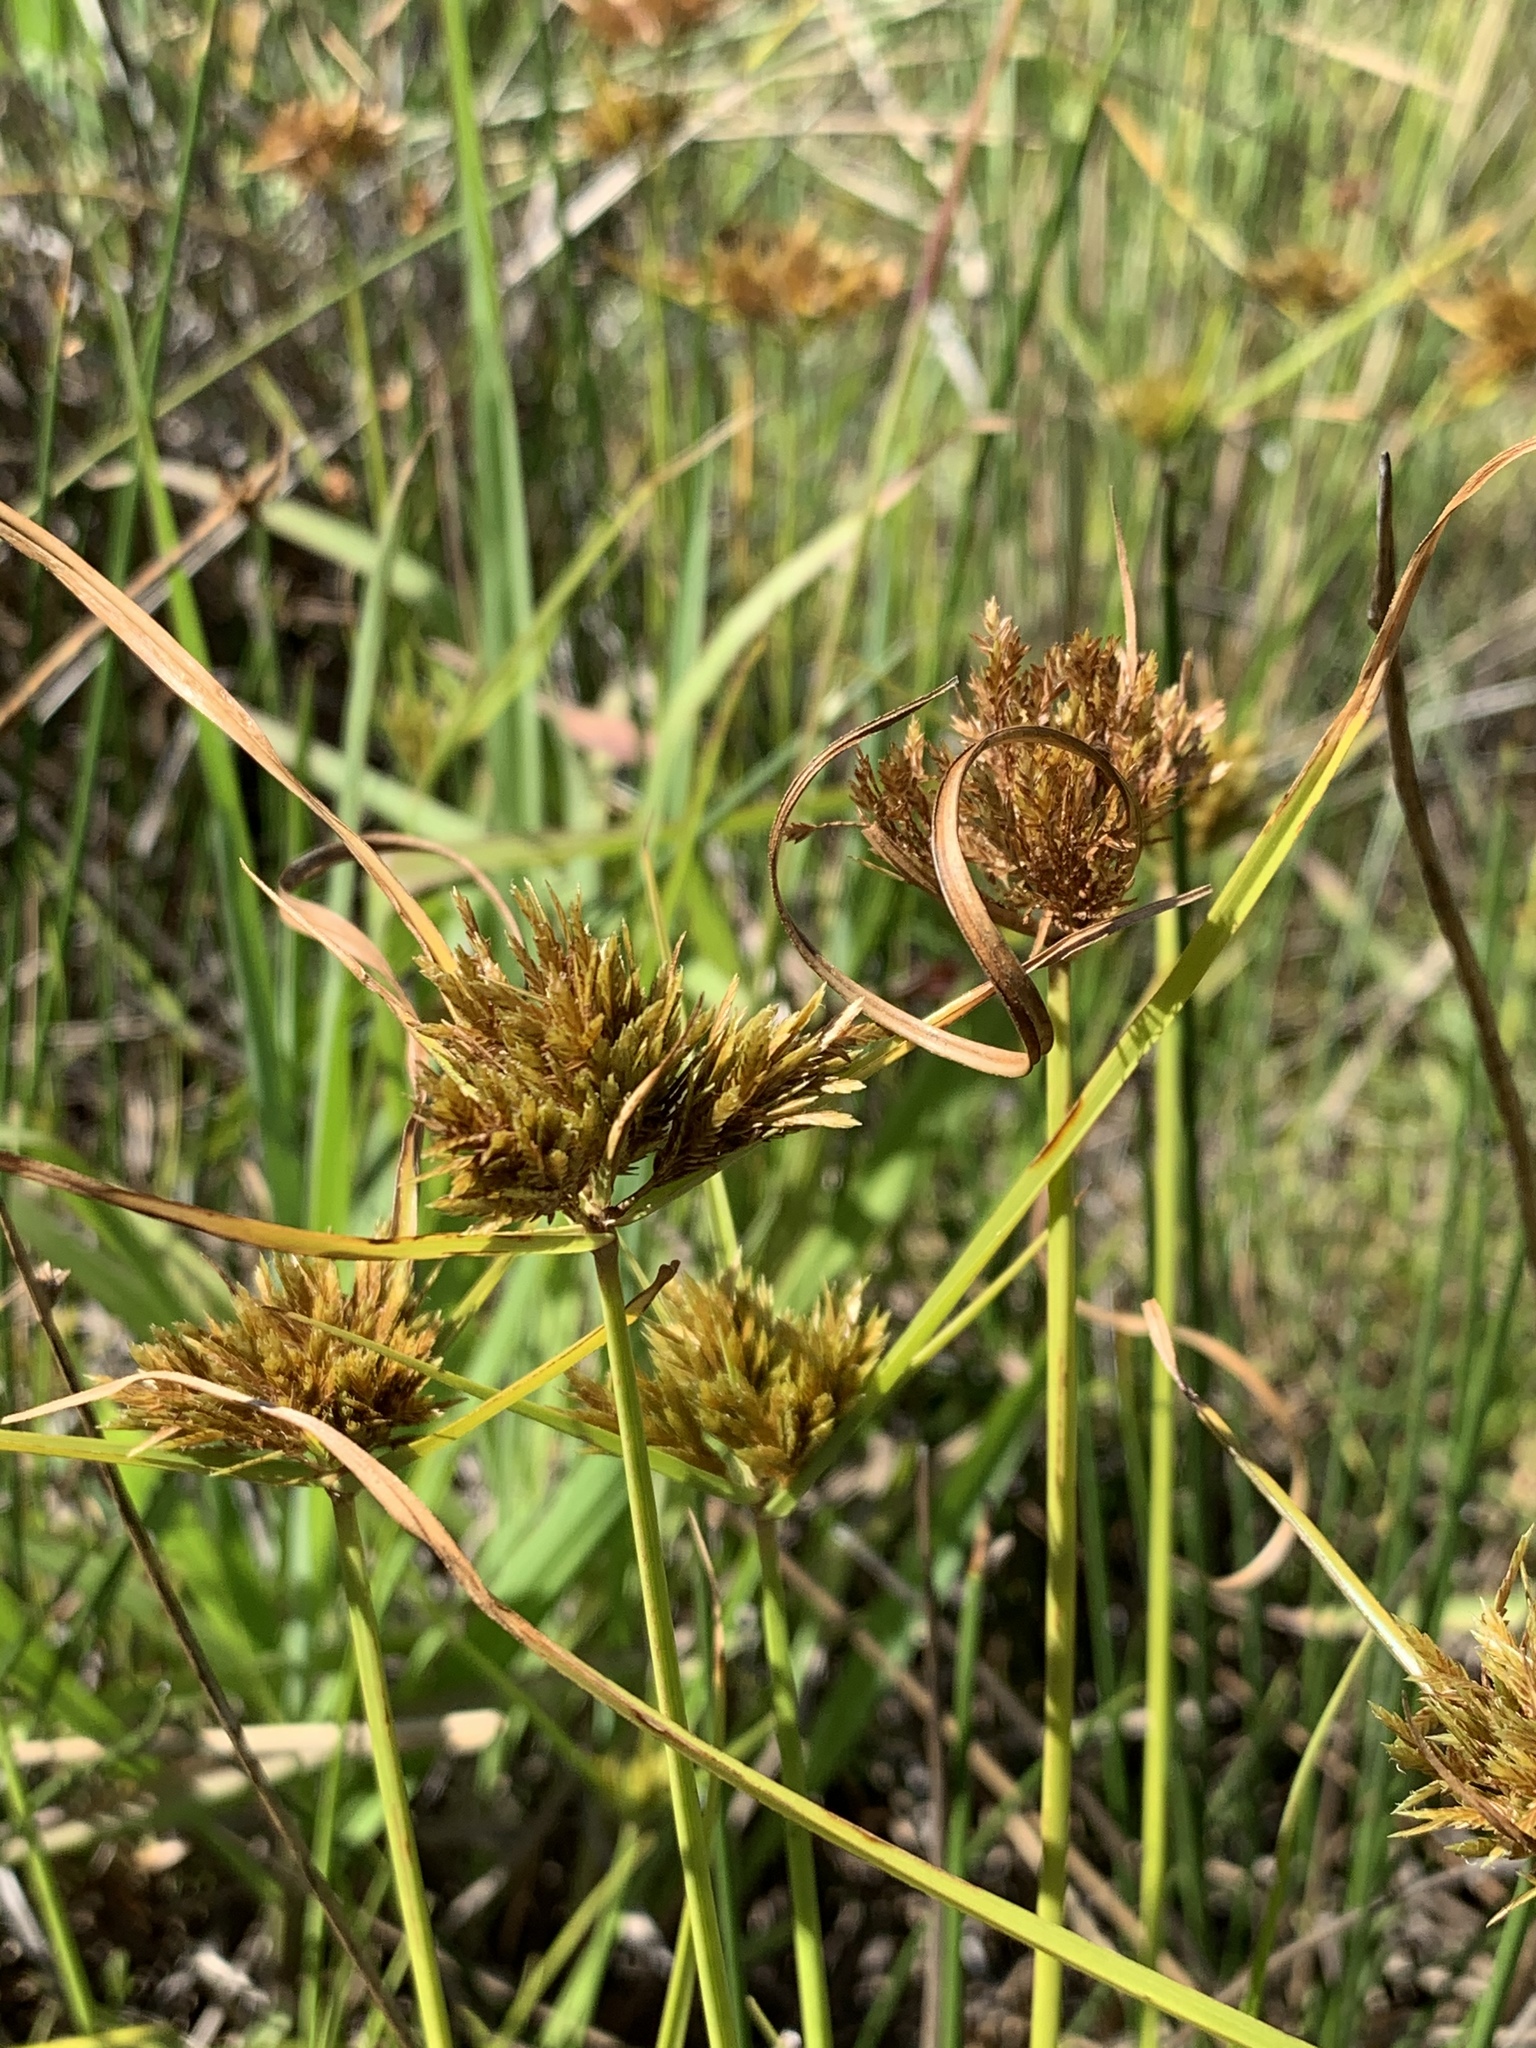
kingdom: Plantae
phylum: Tracheophyta
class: Liliopsida
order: Poales
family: Cyperaceae
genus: Cyperus
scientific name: Cyperus polystachyos
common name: Bunchy flat sedge
